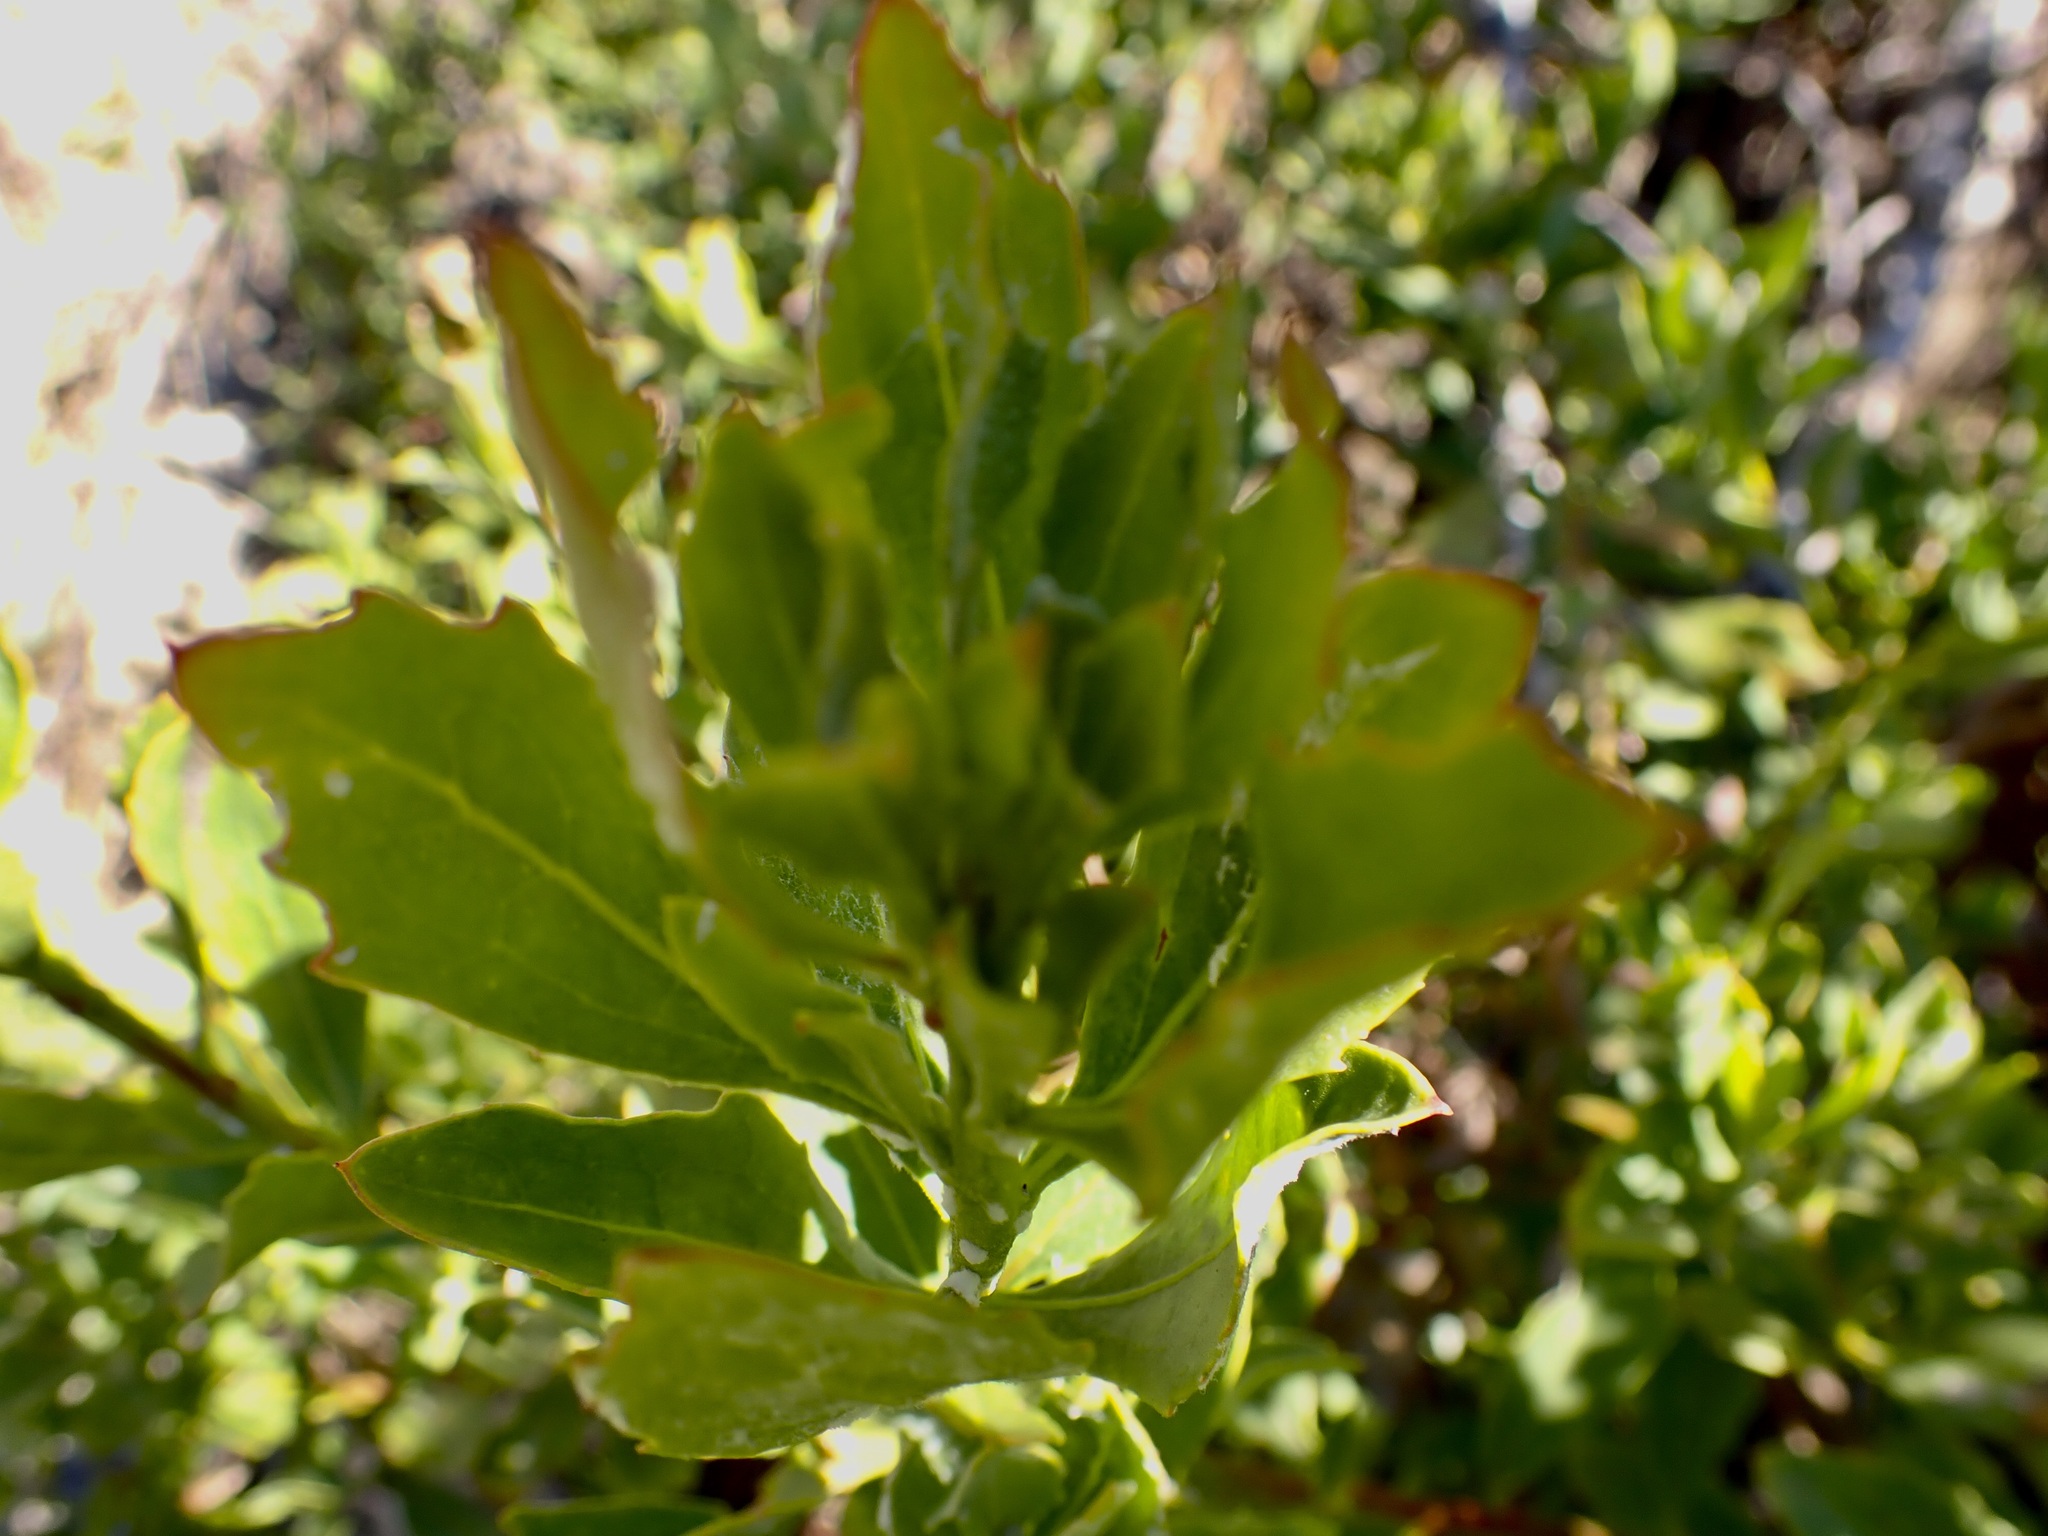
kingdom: Plantae
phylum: Tracheophyta
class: Magnoliopsida
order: Asterales
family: Asteraceae
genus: Osteospermum
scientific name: Osteospermum moniliferum
